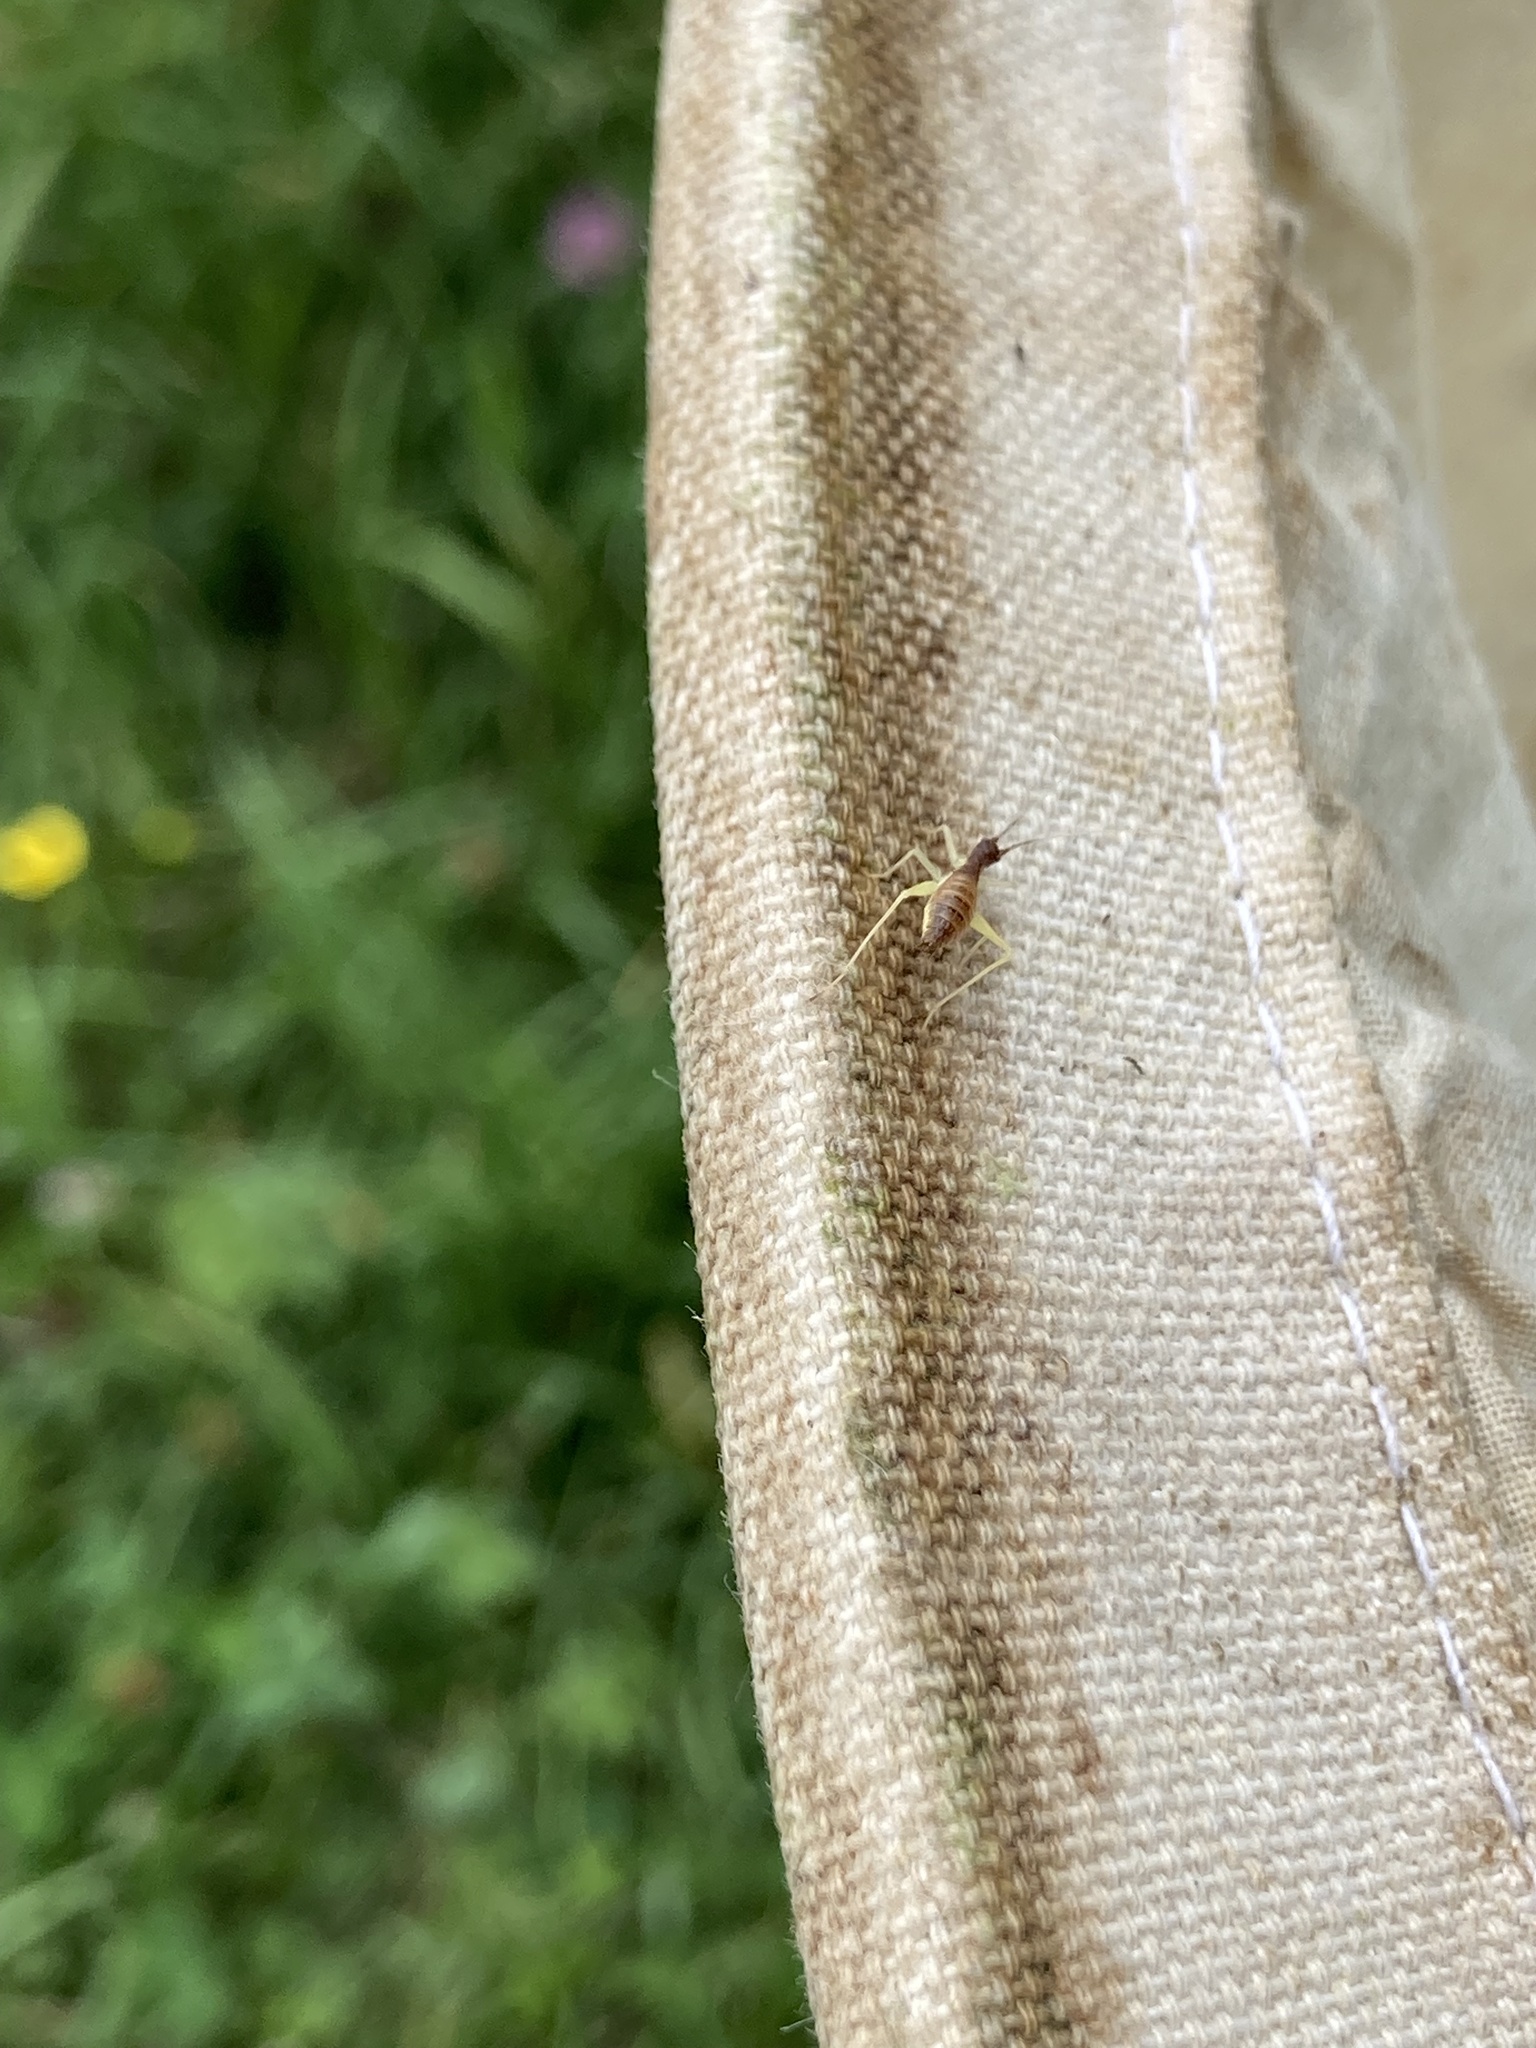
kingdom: Animalia
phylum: Arthropoda
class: Insecta
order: Orthoptera
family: Gryllidae
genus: Neoxabea
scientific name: Neoxabea bipunctata
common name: Two-spotted tree cricket
